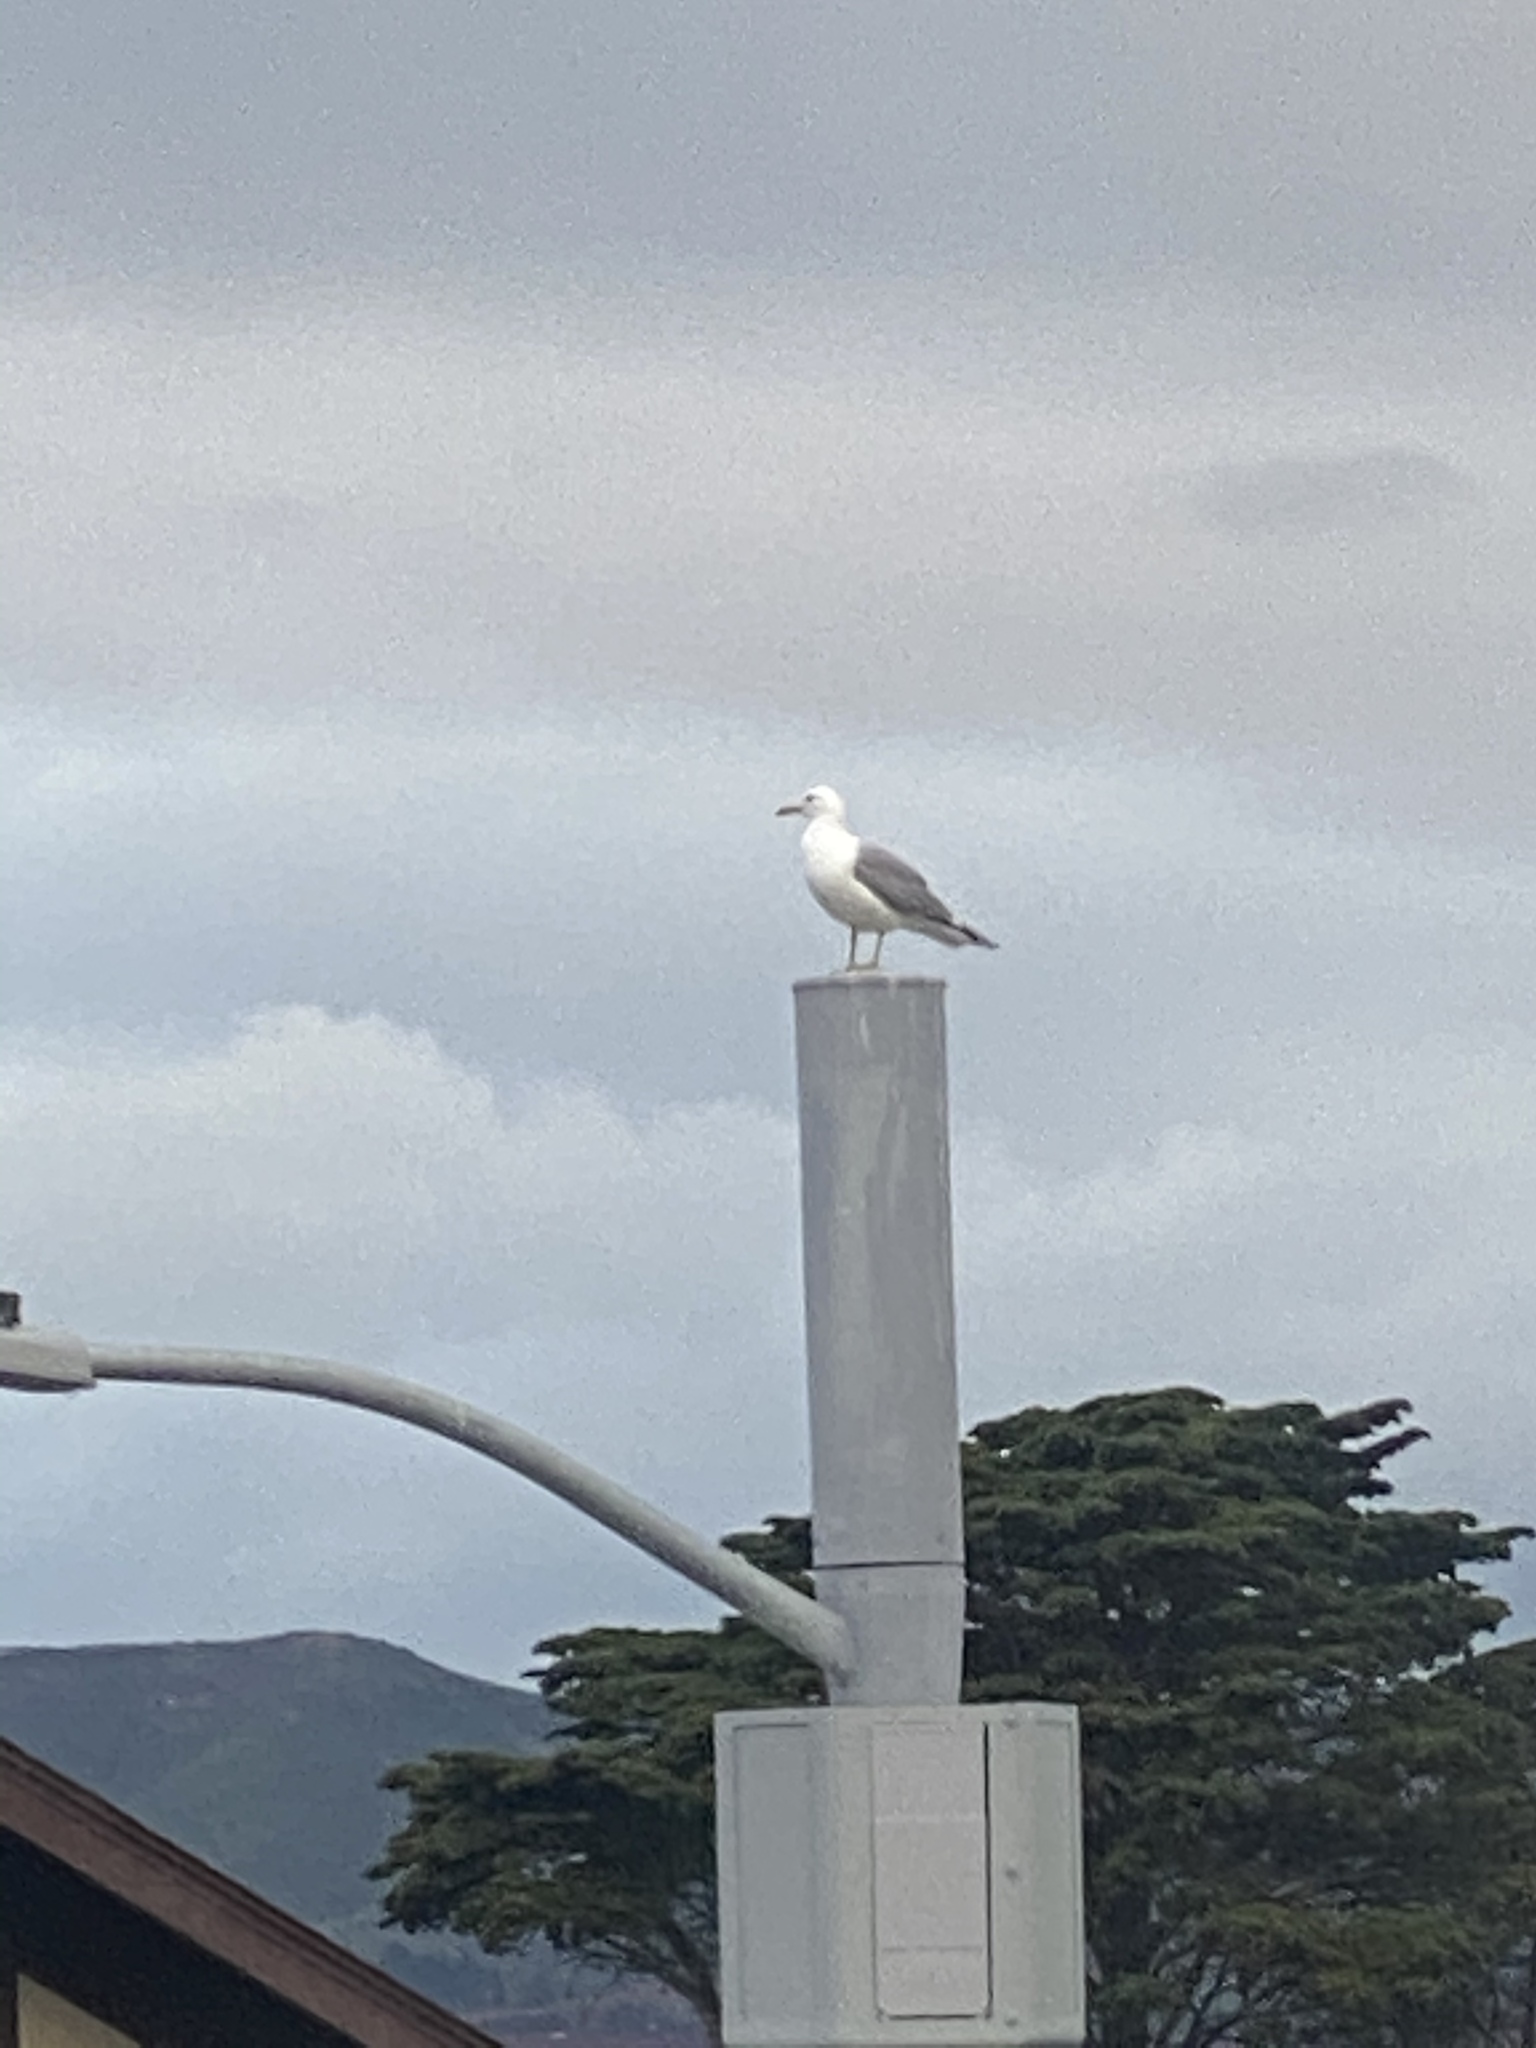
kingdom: Animalia
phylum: Chordata
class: Aves
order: Charadriiformes
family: Laridae
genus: Larus
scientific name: Larus occidentalis
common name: Western gull
